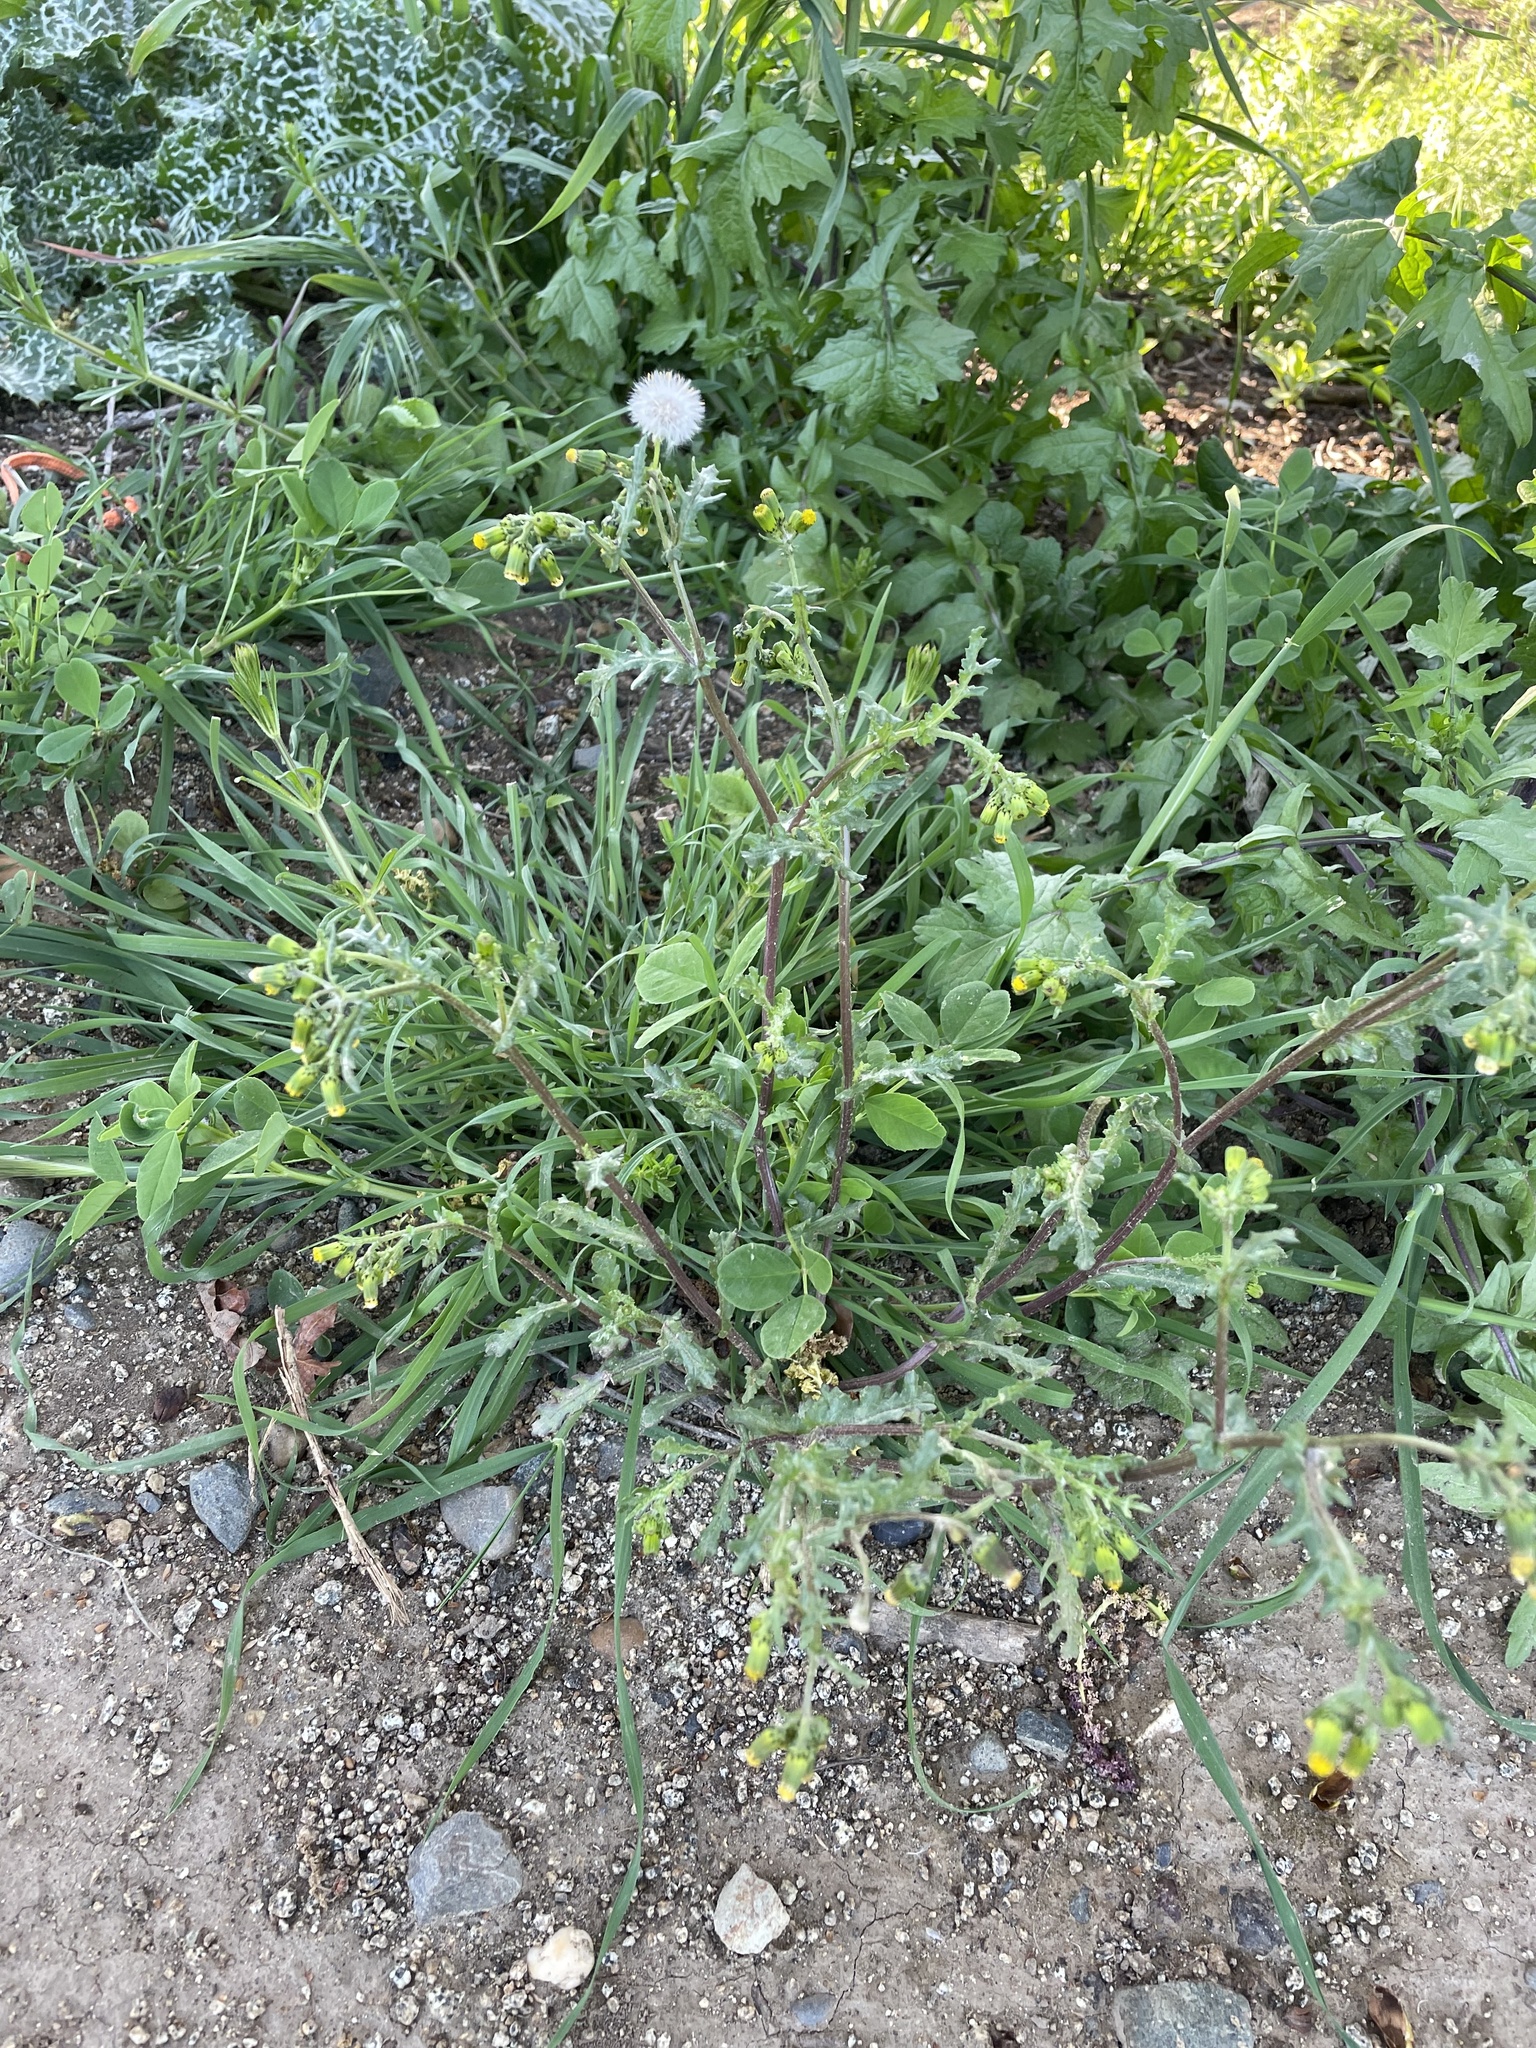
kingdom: Plantae
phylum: Tracheophyta
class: Magnoliopsida
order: Asterales
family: Asteraceae
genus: Senecio
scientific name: Senecio vulgaris
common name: Old-man-in-the-spring
